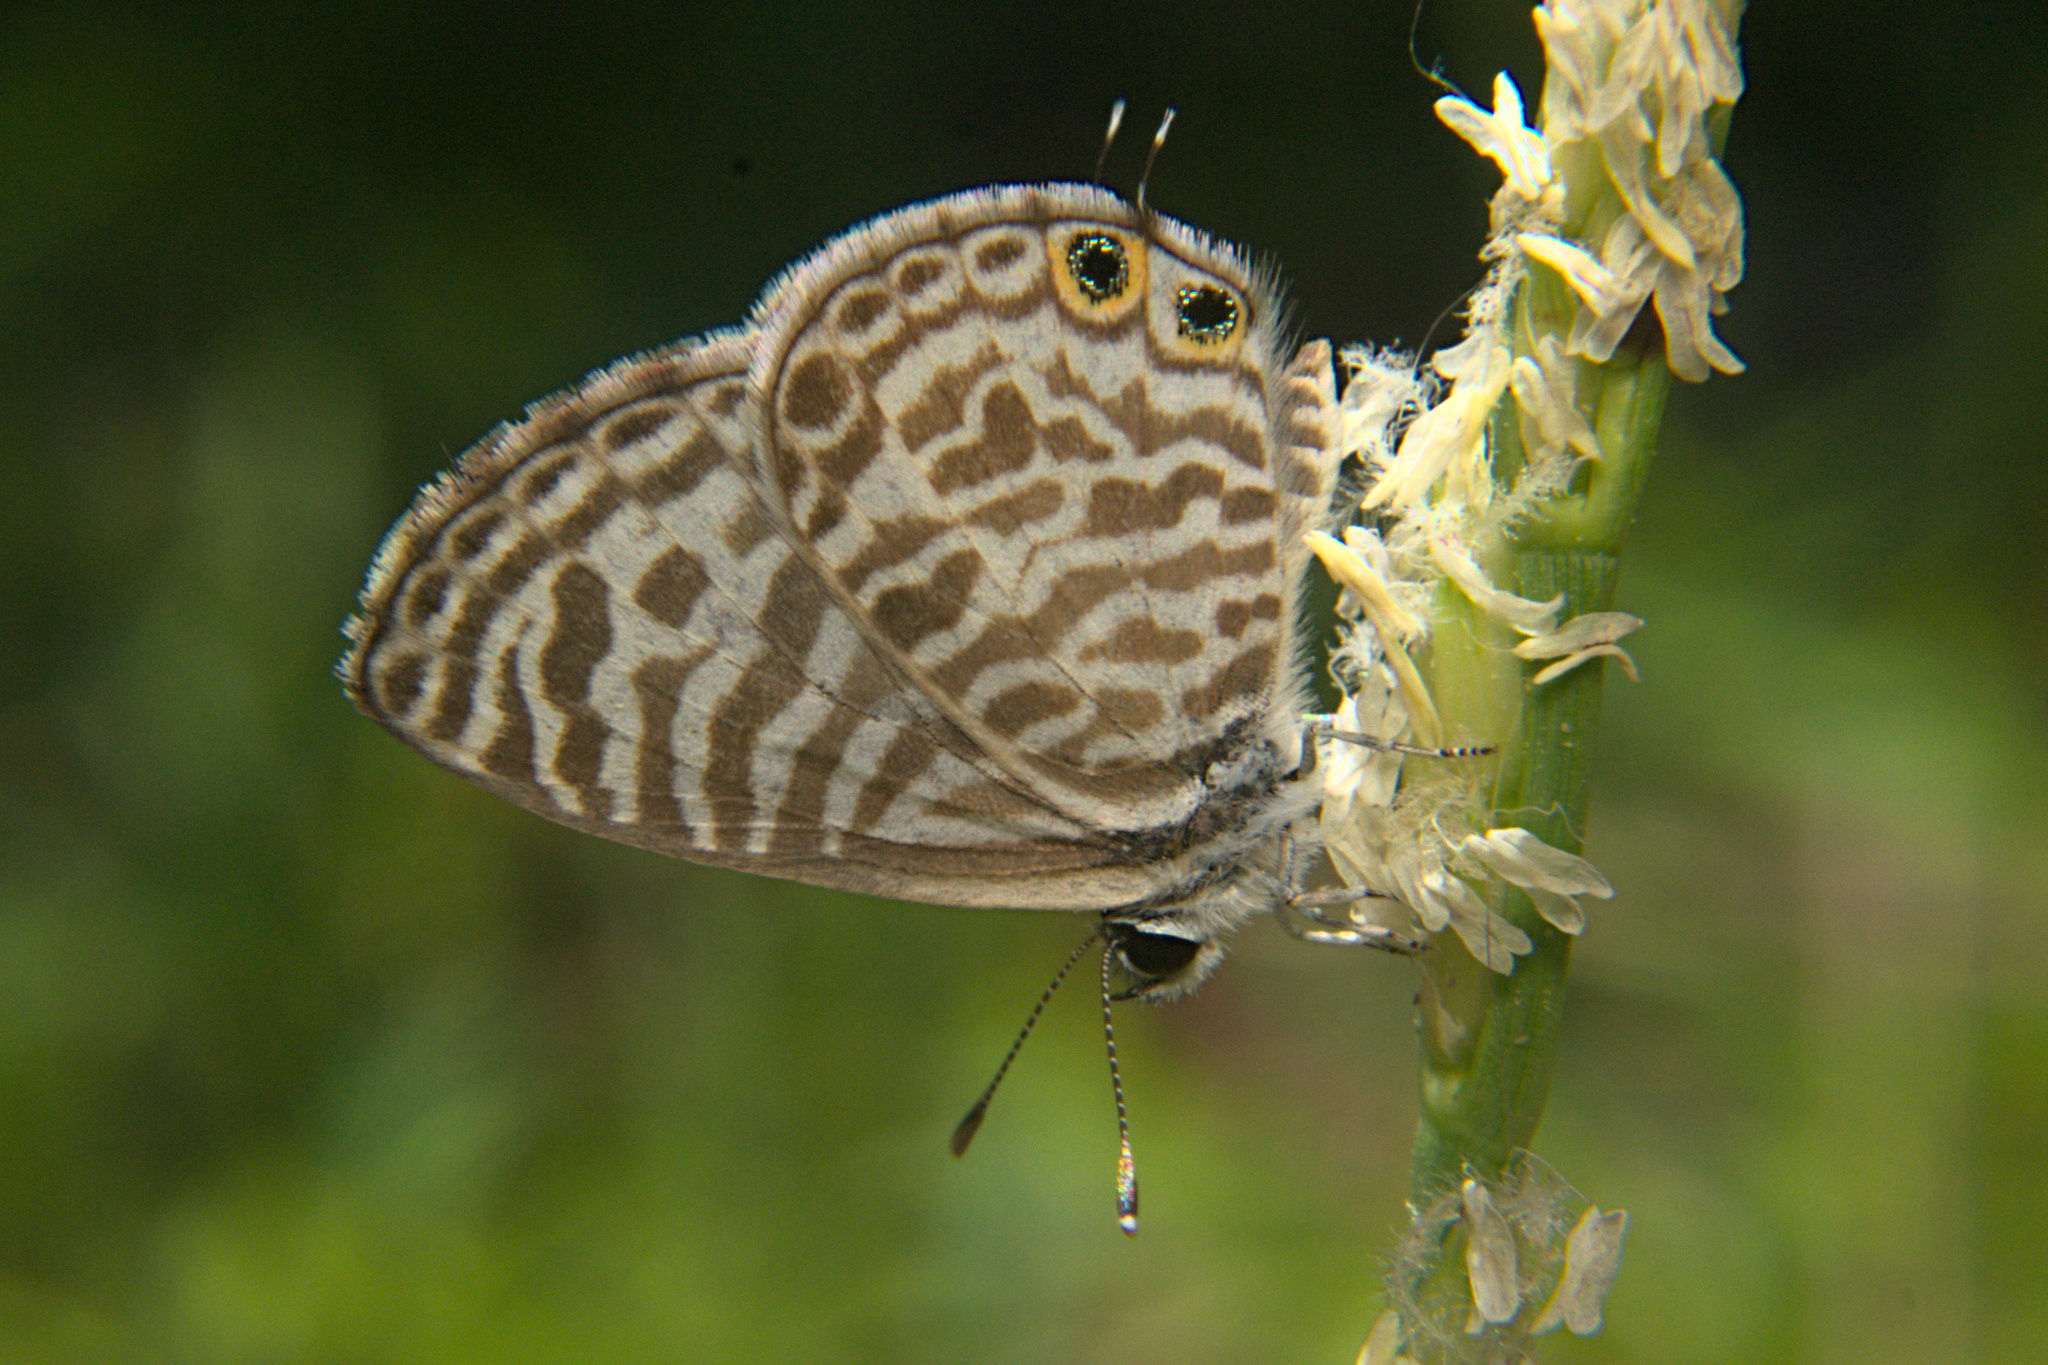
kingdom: Animalia
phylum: Arthropoda
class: Insecta
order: Lepidoptera
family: Lycaenidae
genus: Leptotes
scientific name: Leptotes plinius
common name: Zebra blue
